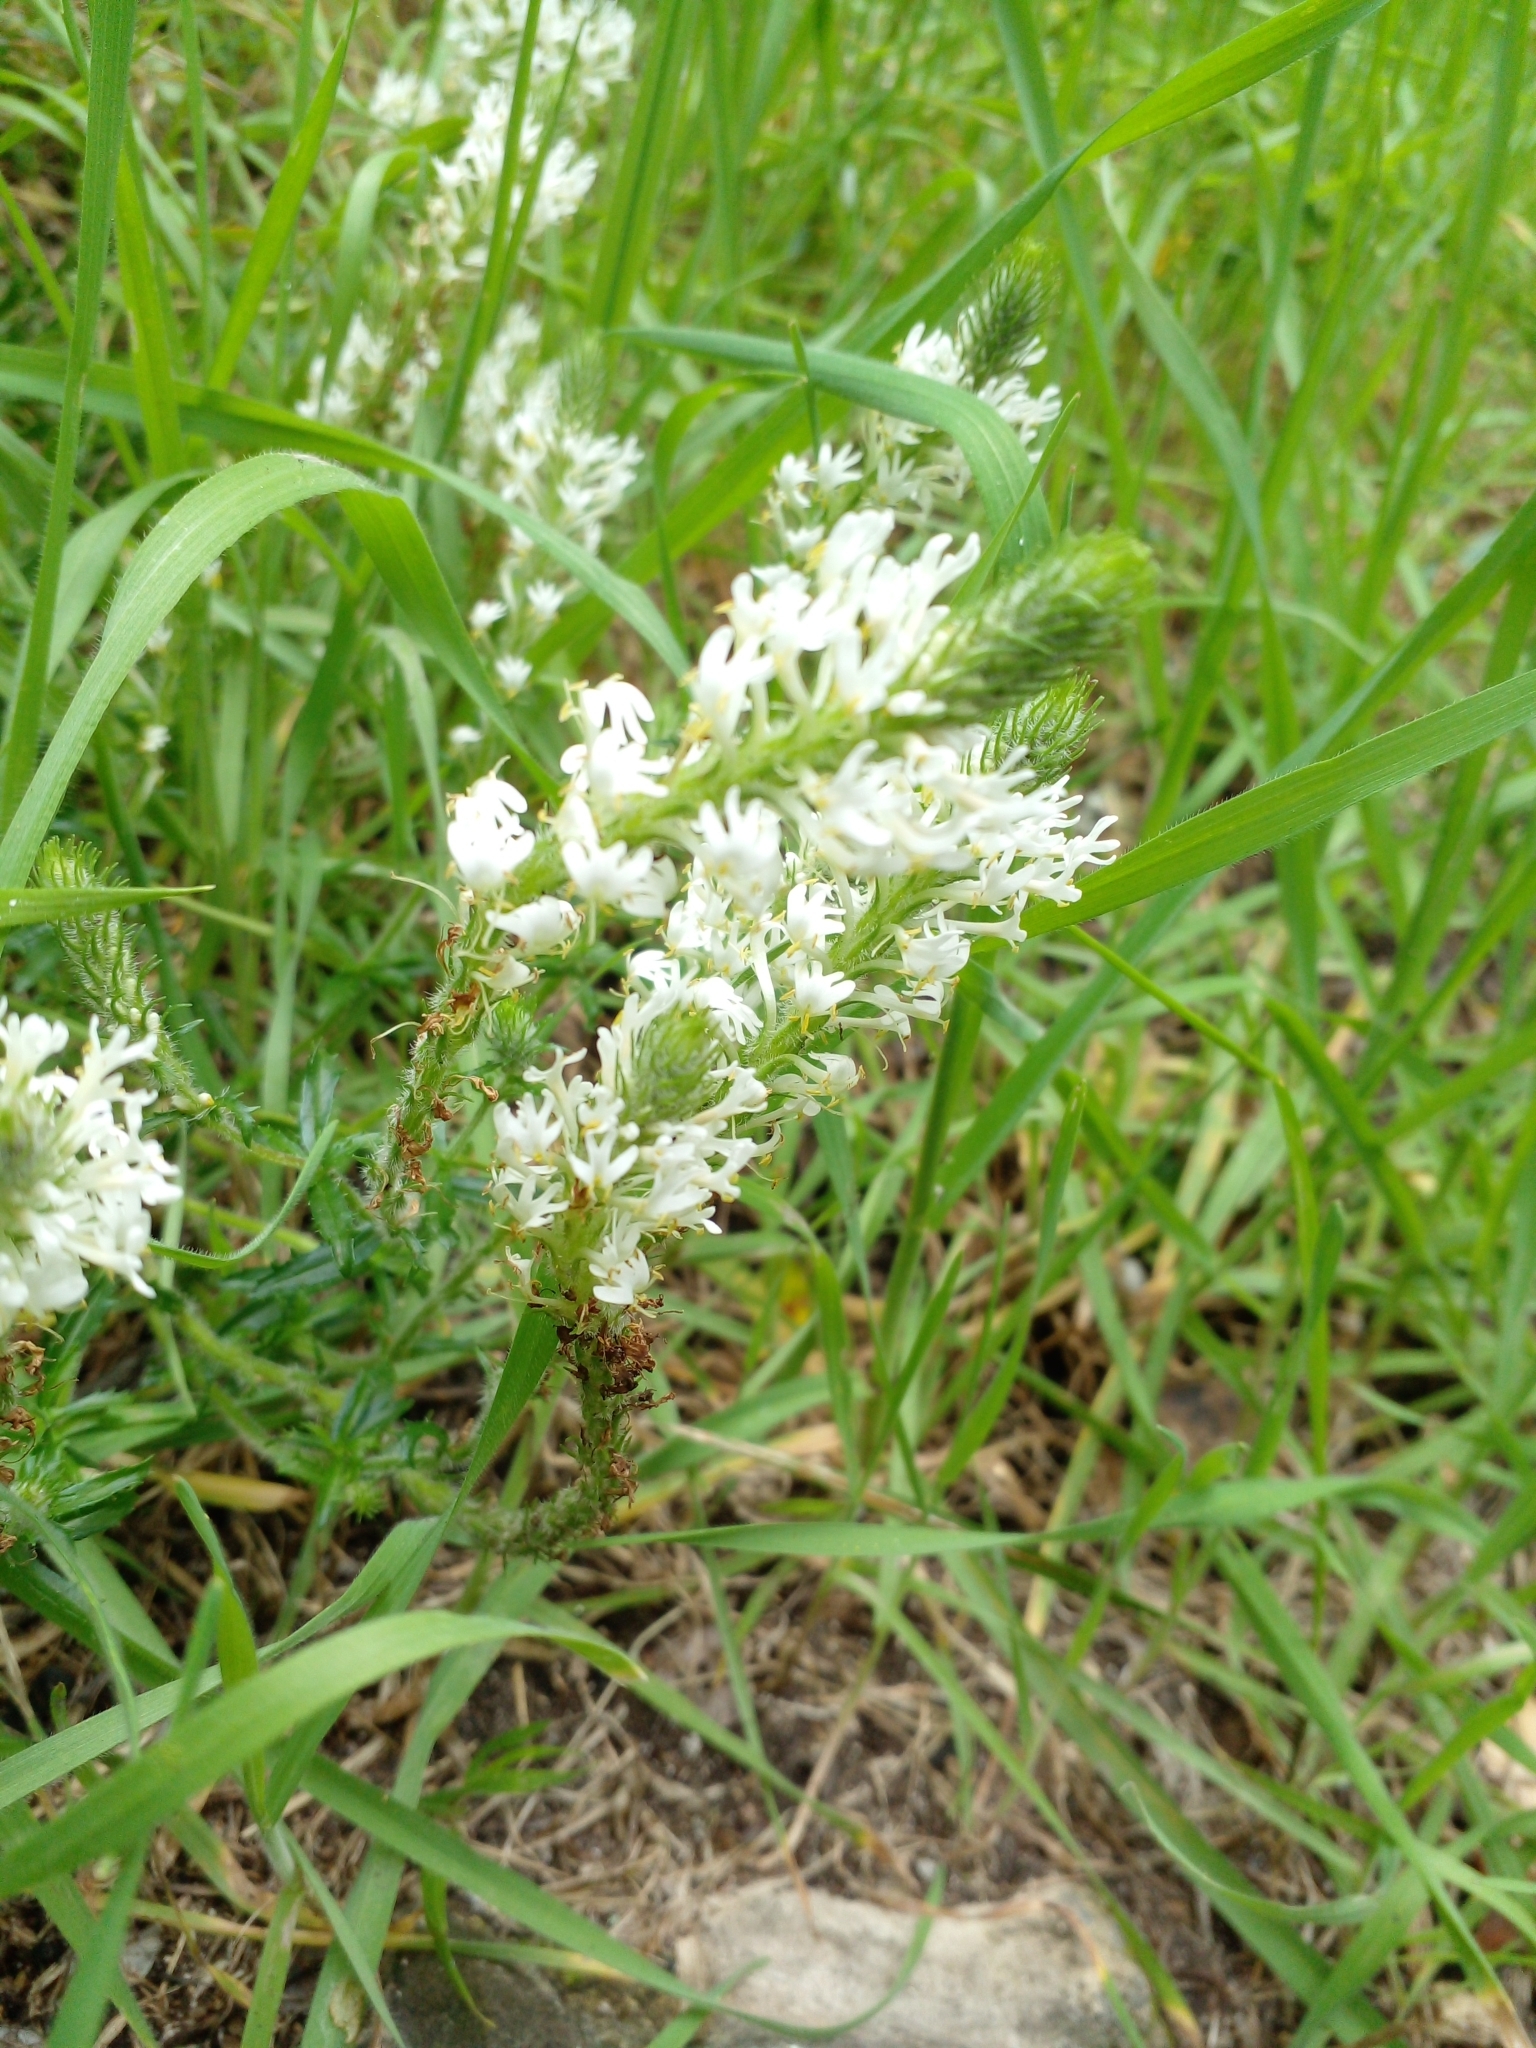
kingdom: Plantae
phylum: Tracheophyta
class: Magnoliopsida
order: Lamiales
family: Scrophulariaceae
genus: Dischisma
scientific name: Dischisma ciliatum
